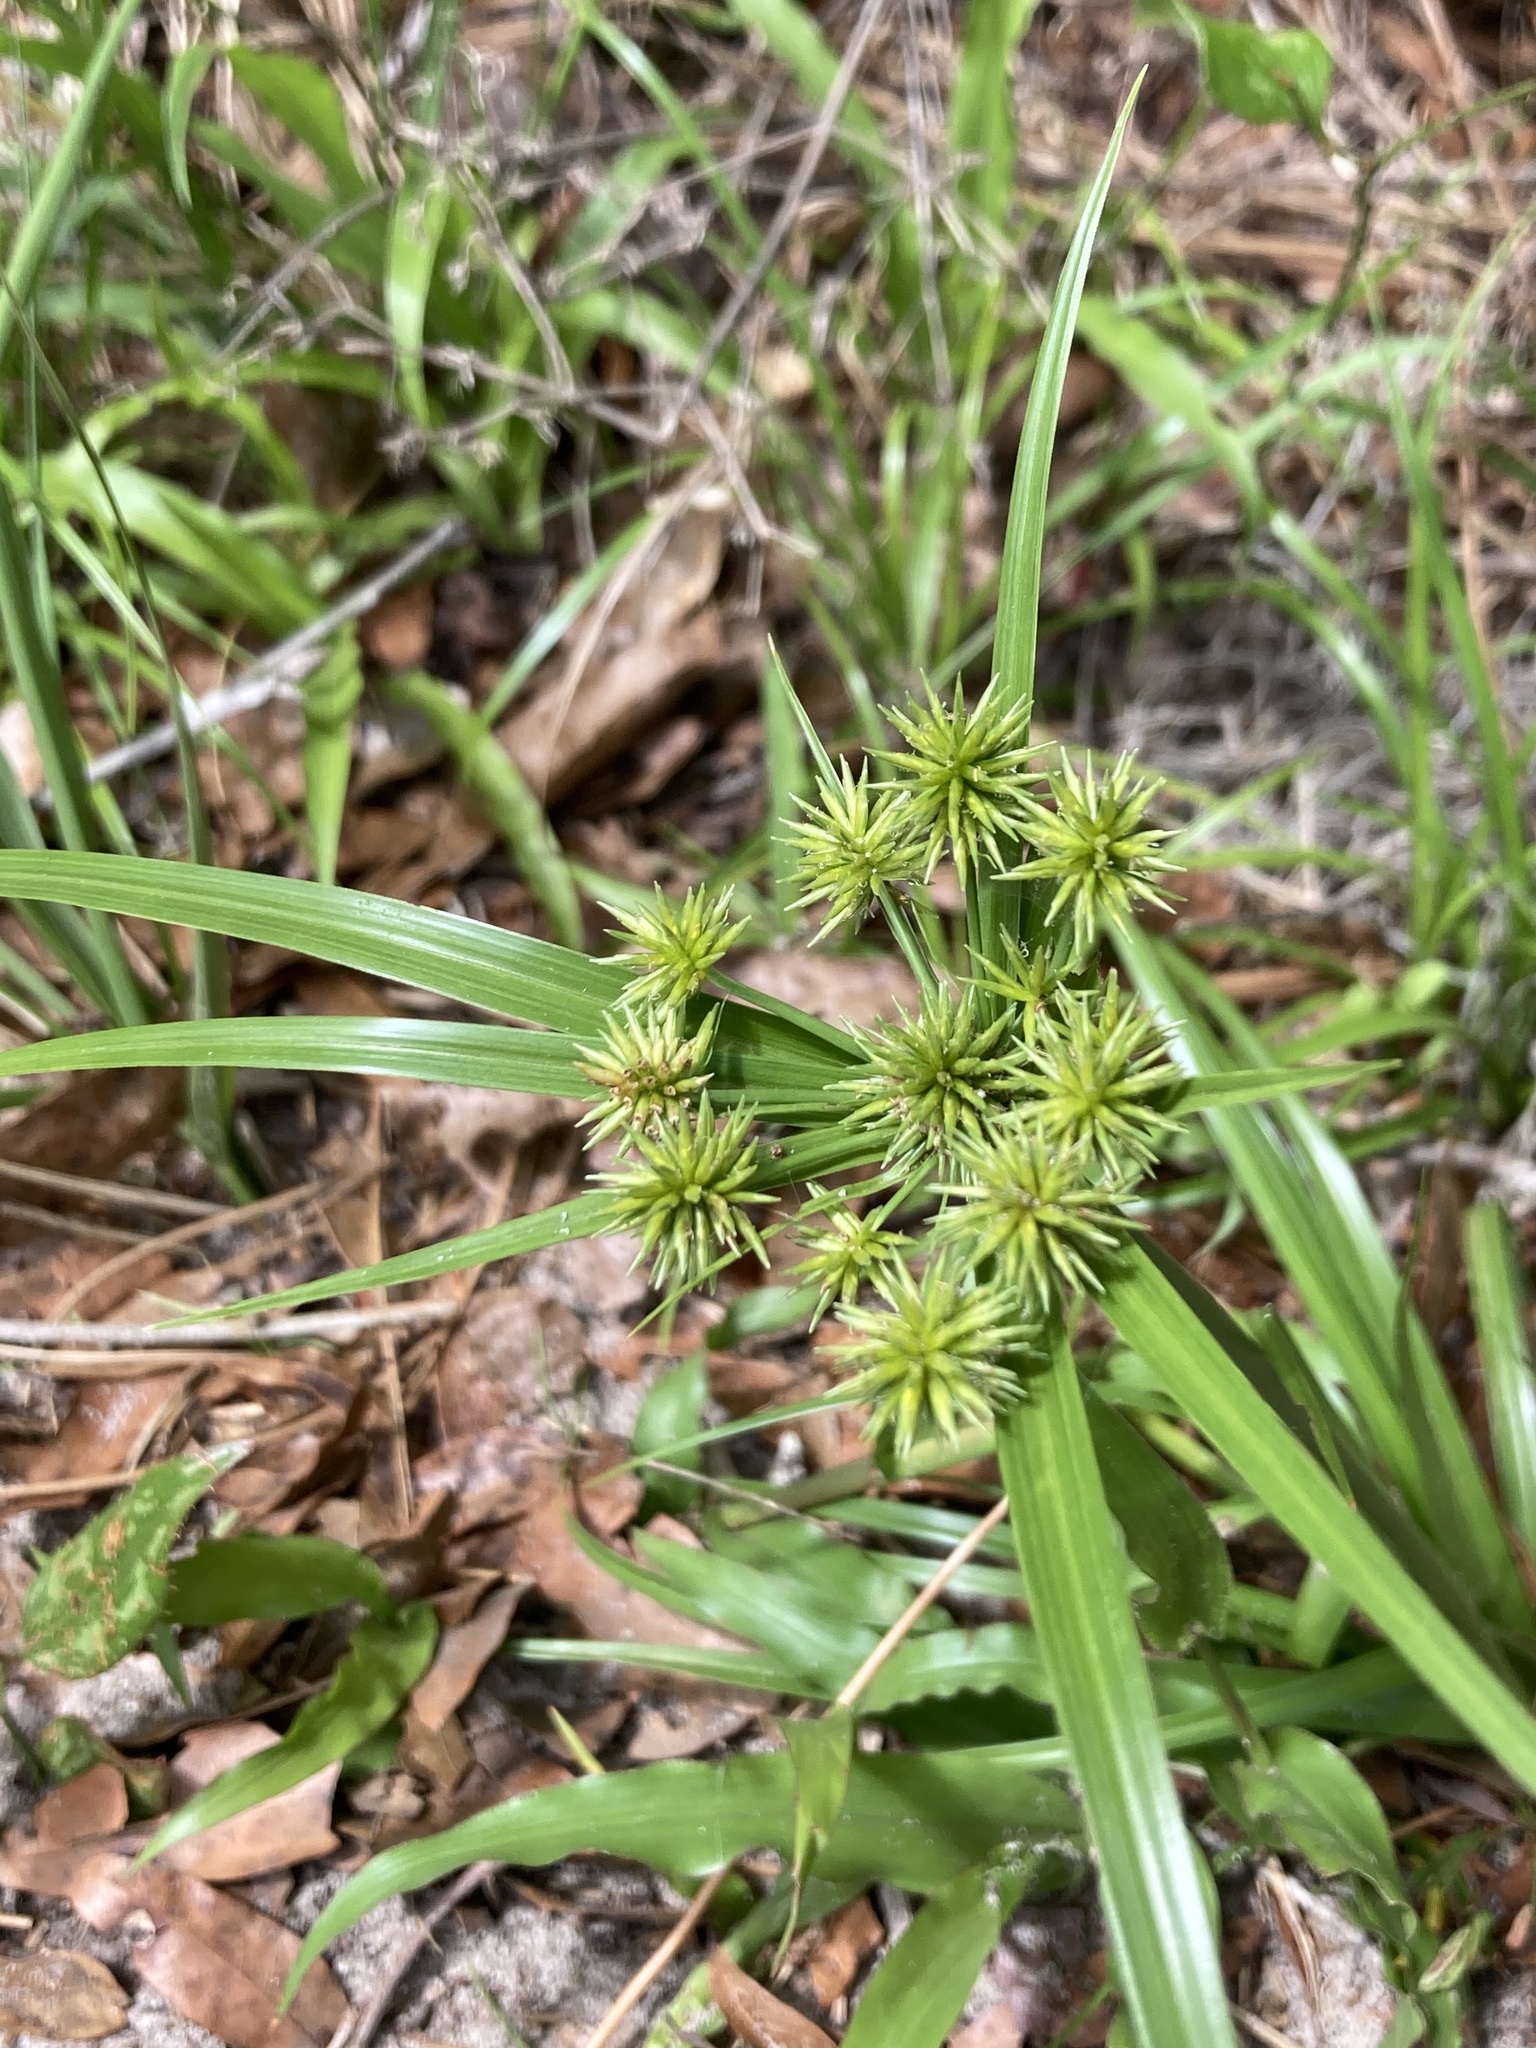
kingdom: Plantae
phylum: Tracheophyta
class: Liliopsida
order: Poales
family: Cyperaceae
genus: Cyperus
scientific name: Cyperus croceus
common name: Baldwin's flatsedge
